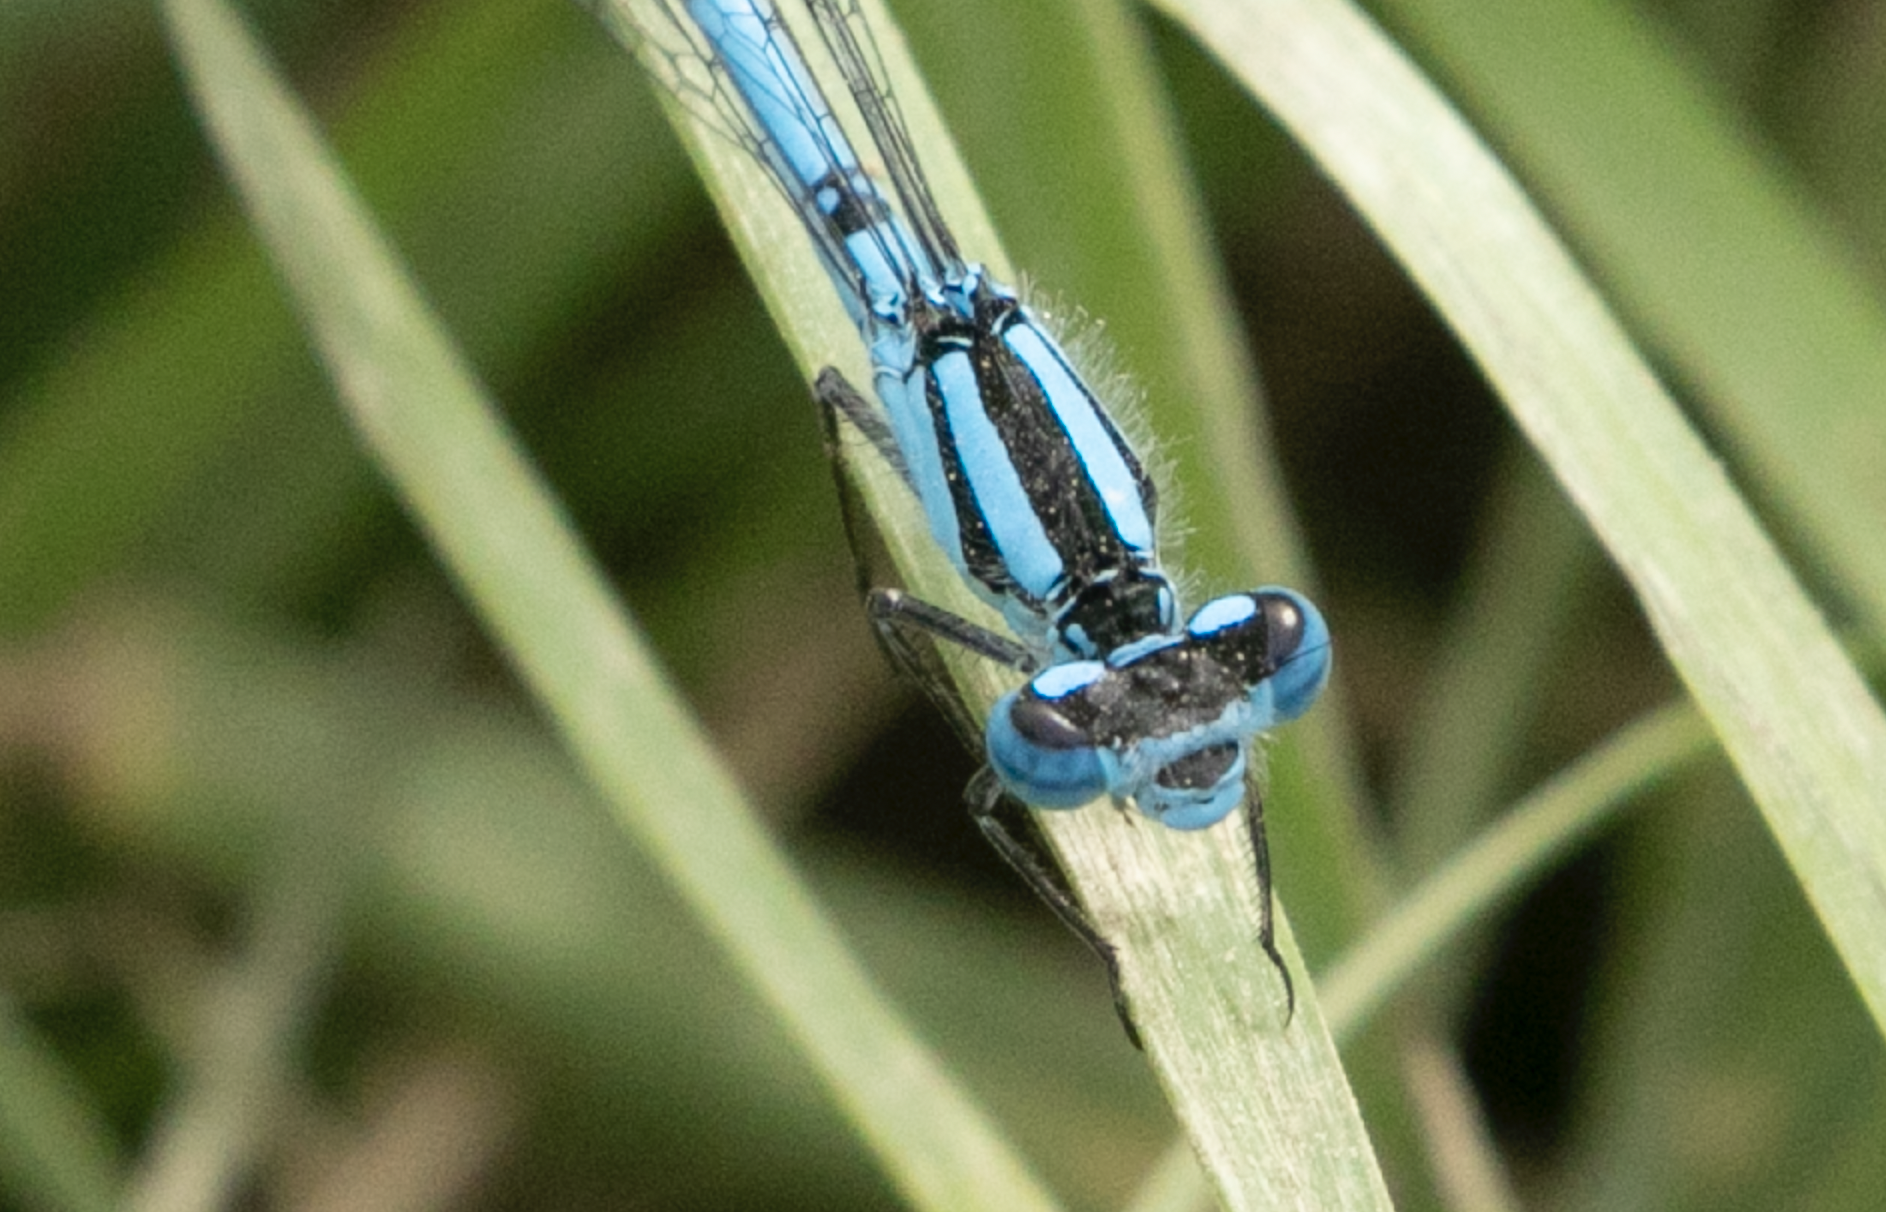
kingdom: Animalia
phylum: Arthropoda
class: Insecta
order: Odonata
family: Coenagrionidae
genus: Enallagma
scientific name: Enallagma cyathigerum
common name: Common blue damselfly
